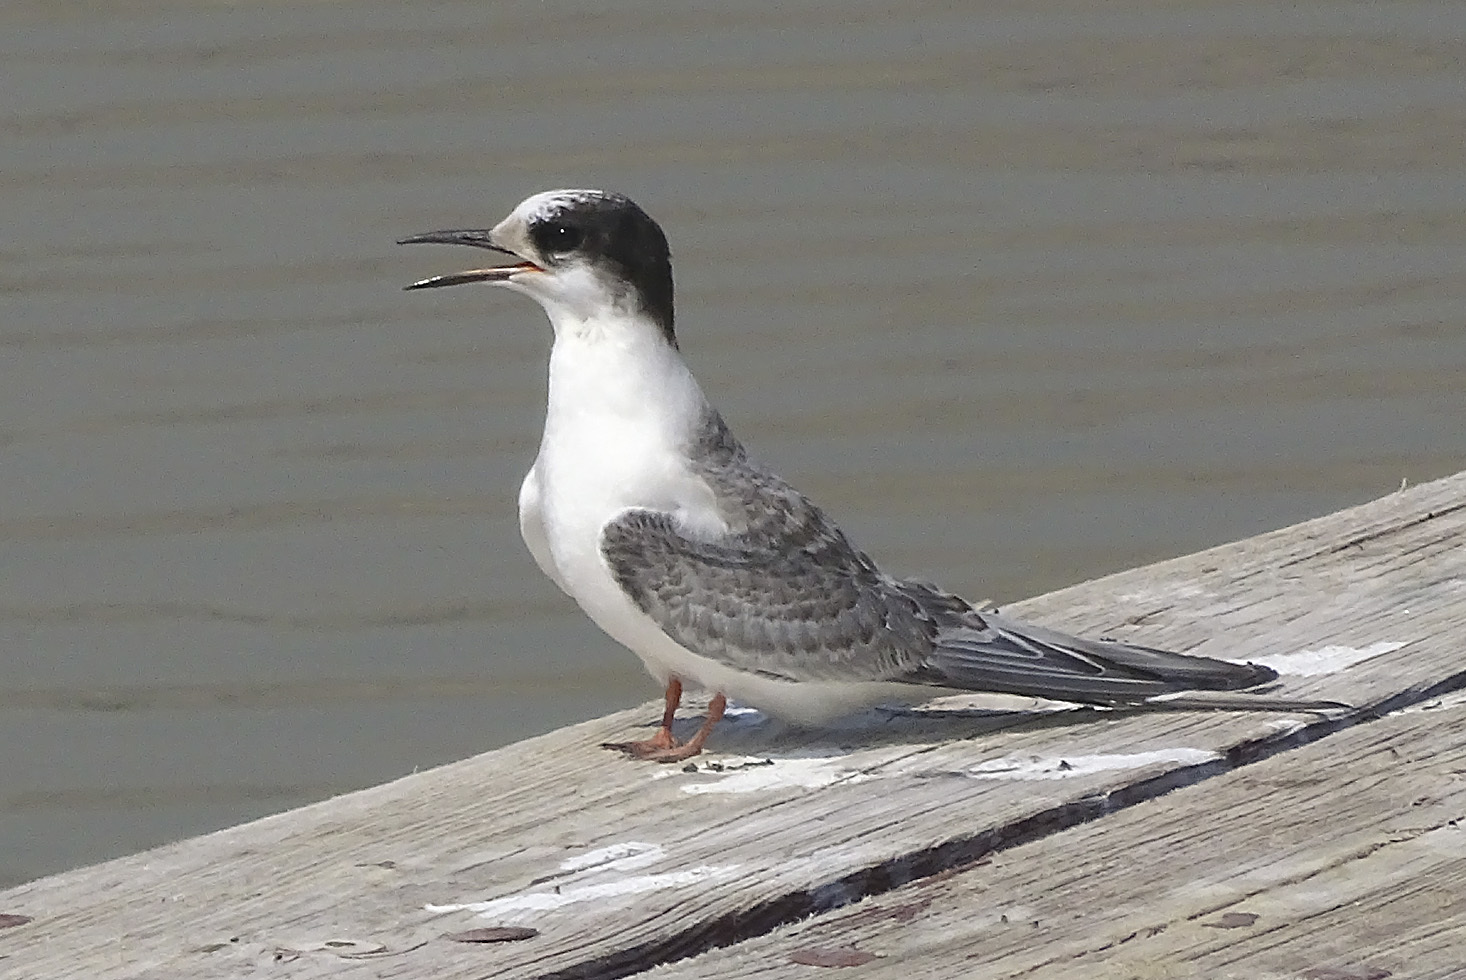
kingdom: Animalia
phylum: Chordata
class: Aves
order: Charadriiformes
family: Laridae
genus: Sterna
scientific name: Sterna paradisaea
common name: Arctic tern
